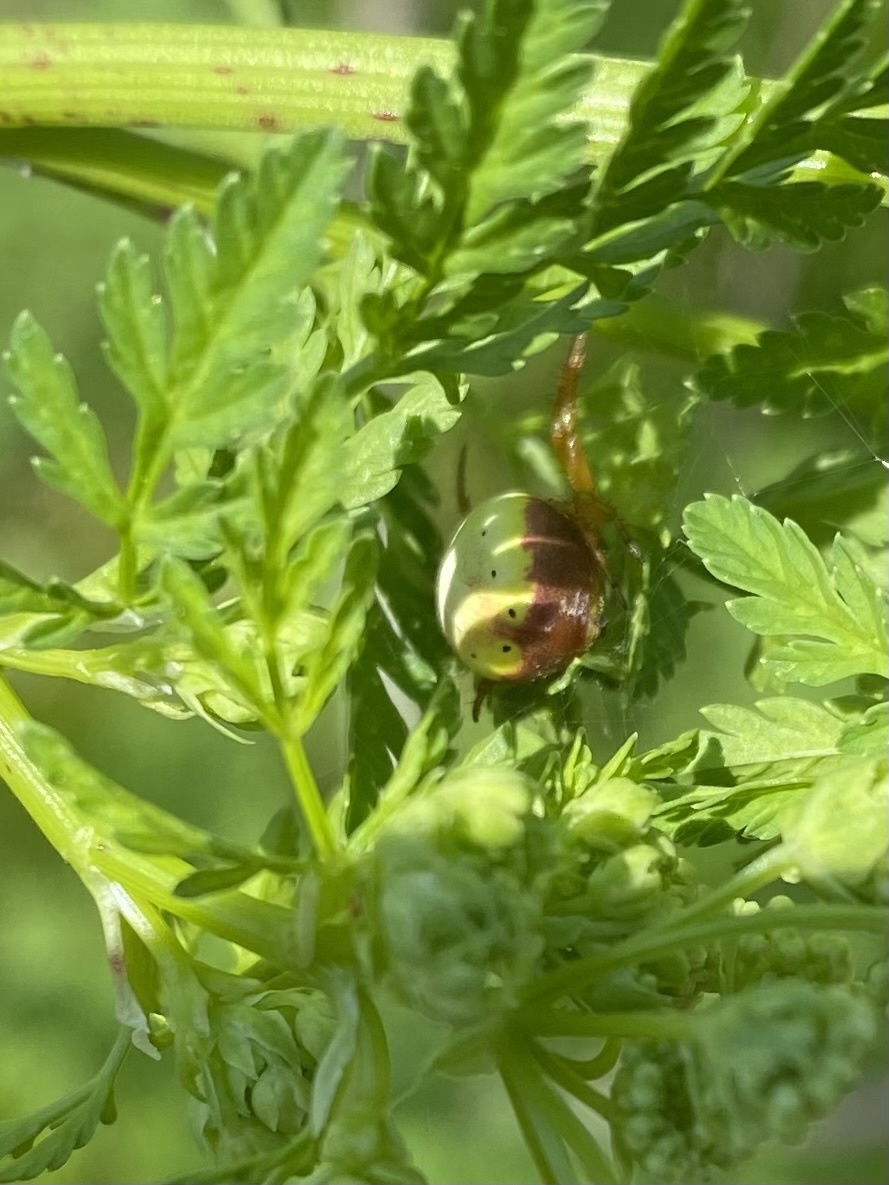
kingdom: Animalia
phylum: Arthropoda
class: Arachnida
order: Araneae
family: Araneidae
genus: Araniella
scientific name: Araniella displicata
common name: Sixspotted orb weaver
